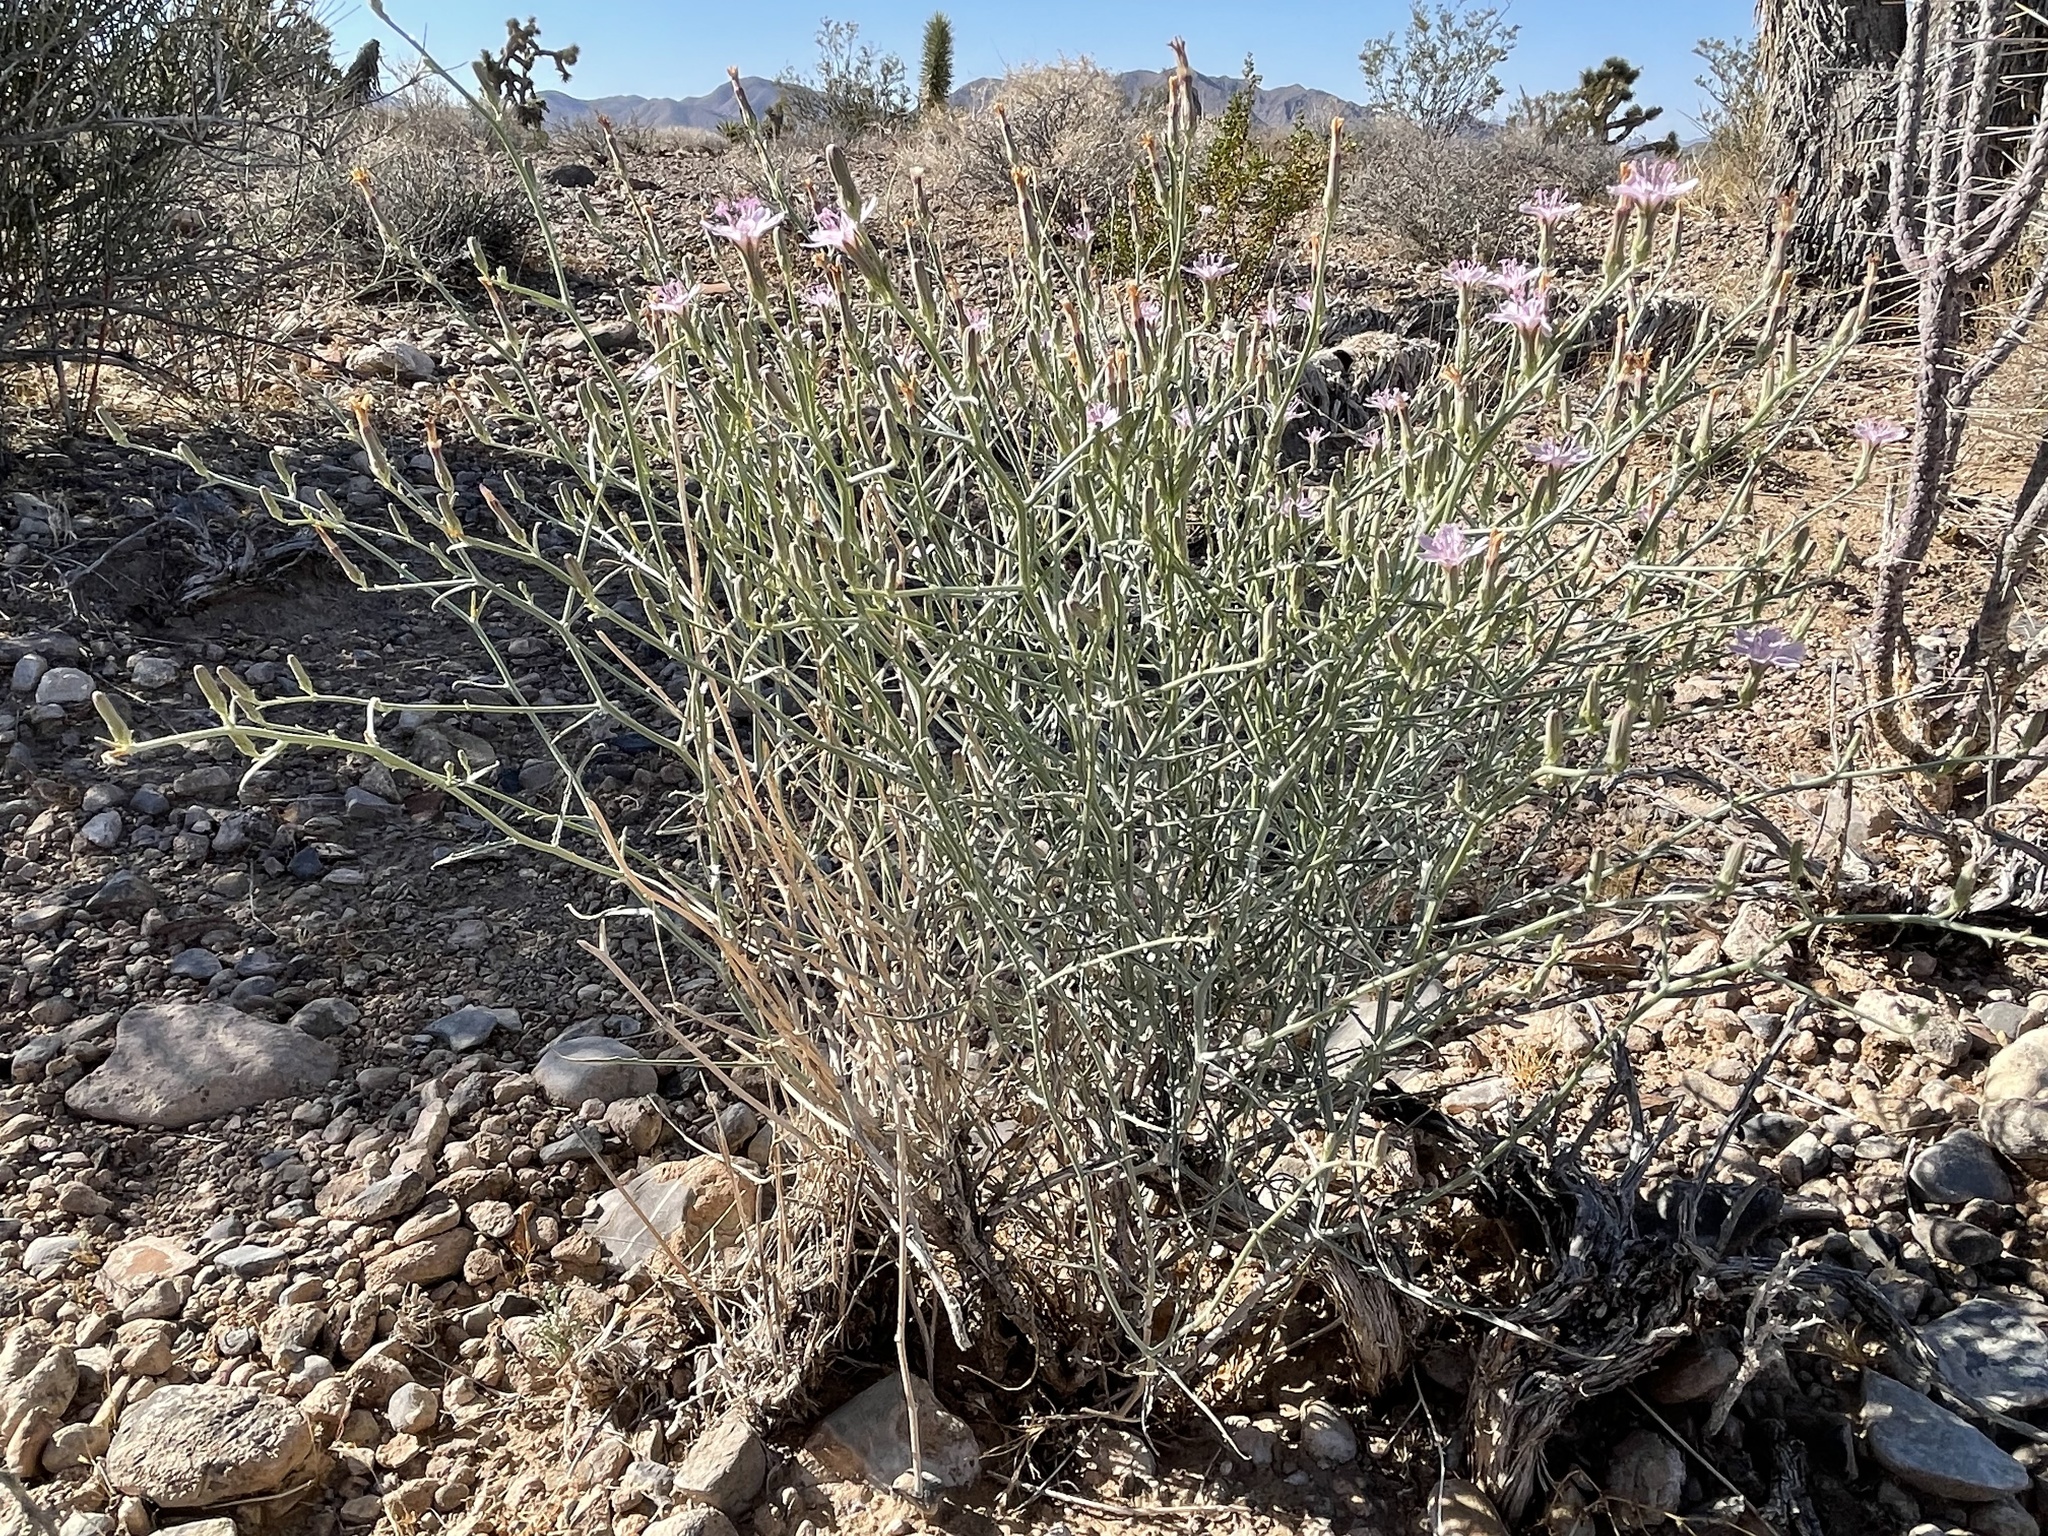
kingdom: Plantae
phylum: Tracheophyta
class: Magnoliopsida
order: Asterales
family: Asteraceae
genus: Stephanomeria
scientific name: Stephanomeria pauciflora
